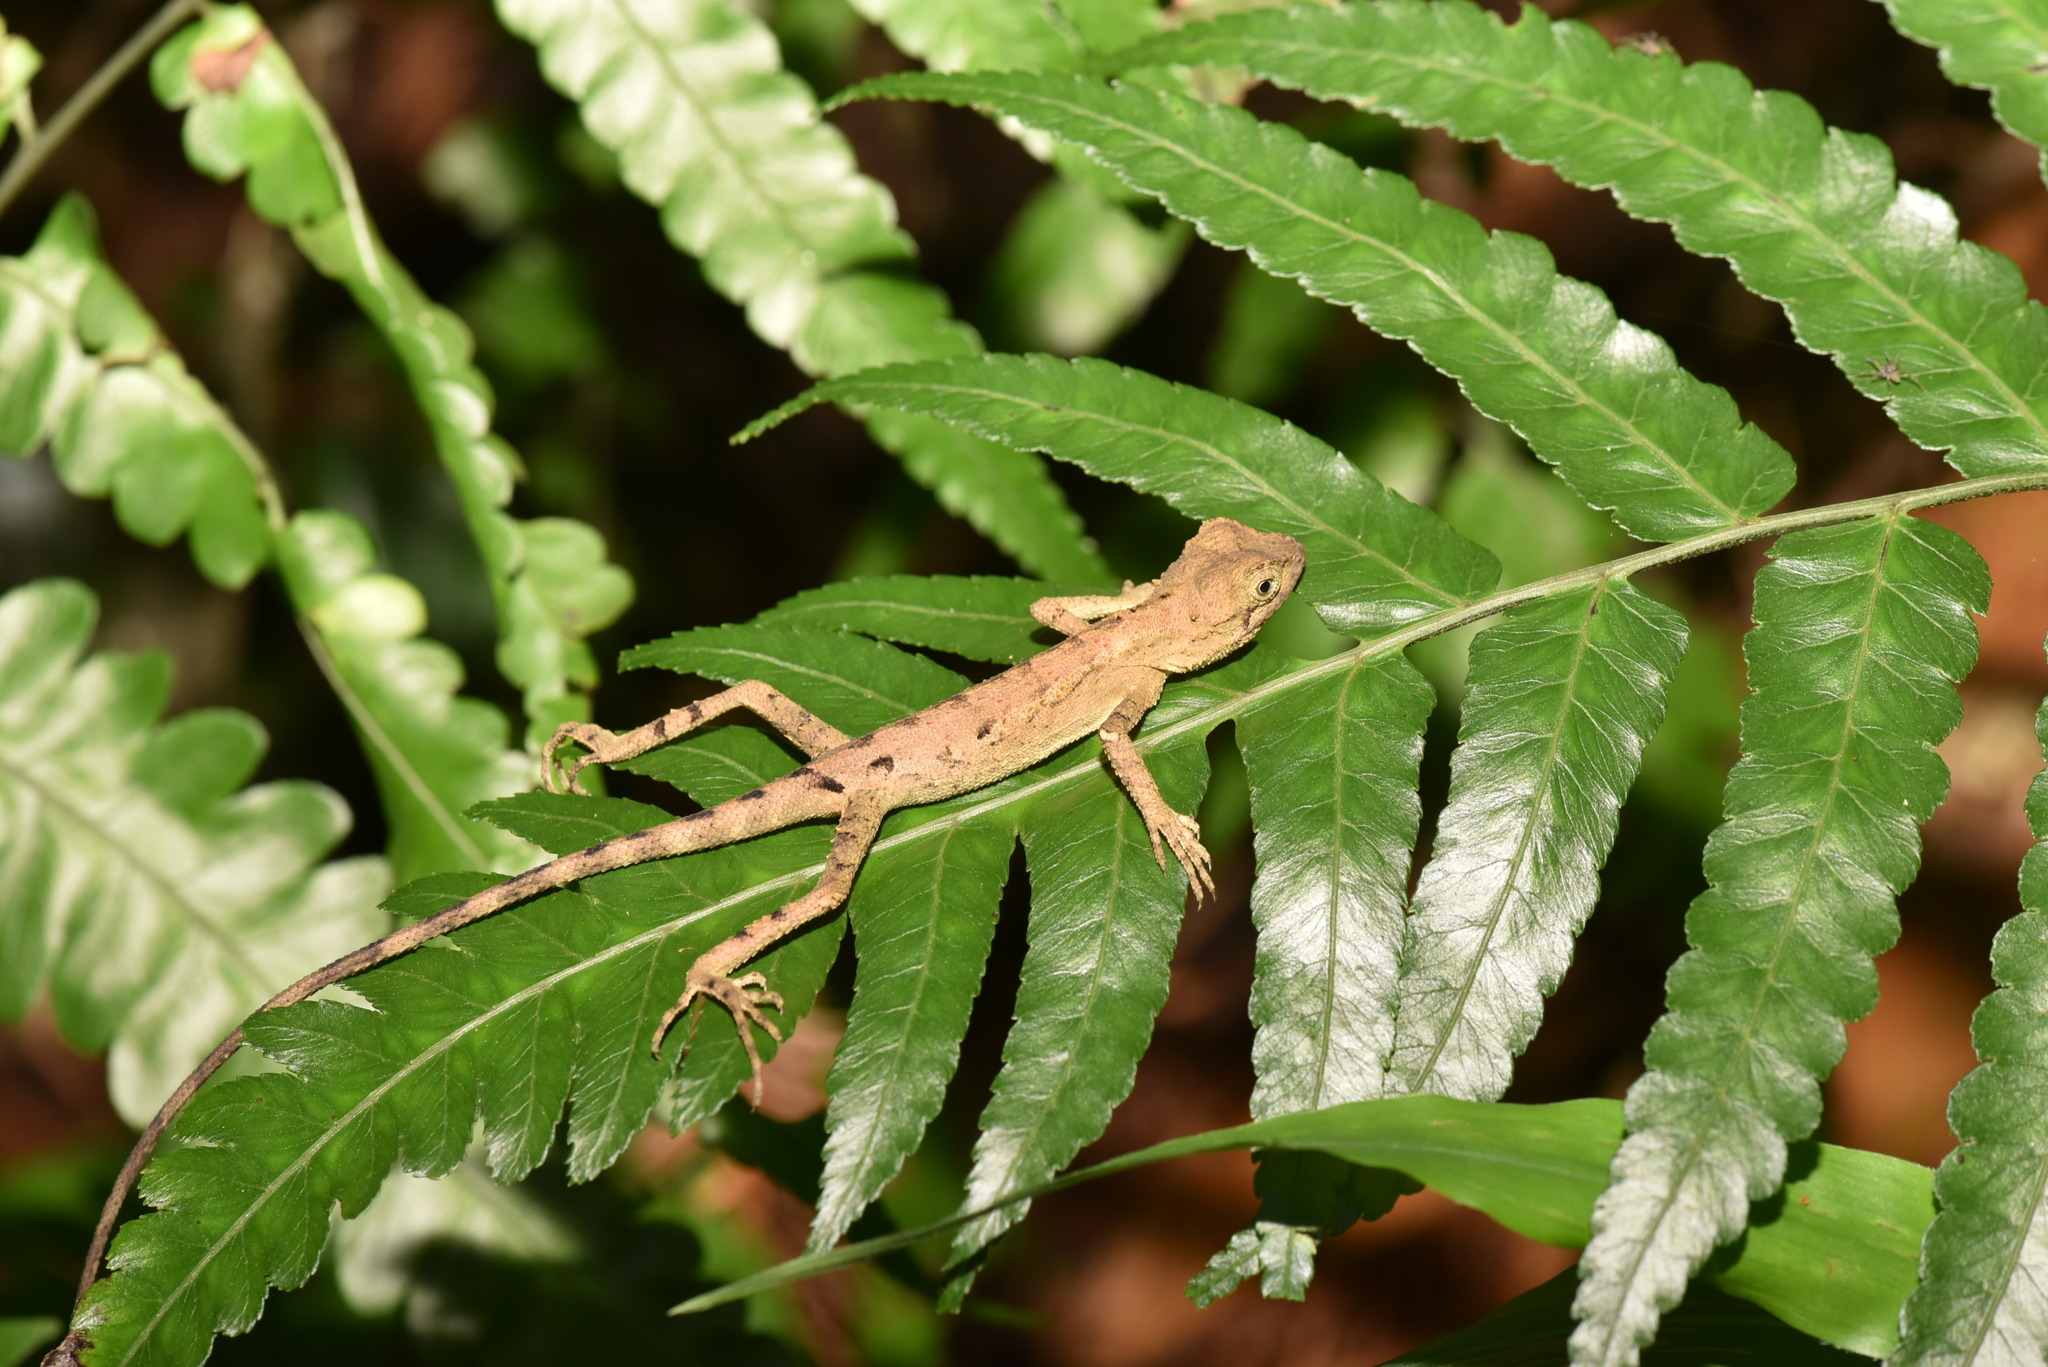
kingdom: Animalia
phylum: Chordata
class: Squamata
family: Agamidae
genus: Diploderma
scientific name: Diploderma swinhonis
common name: Taiwan japalure
